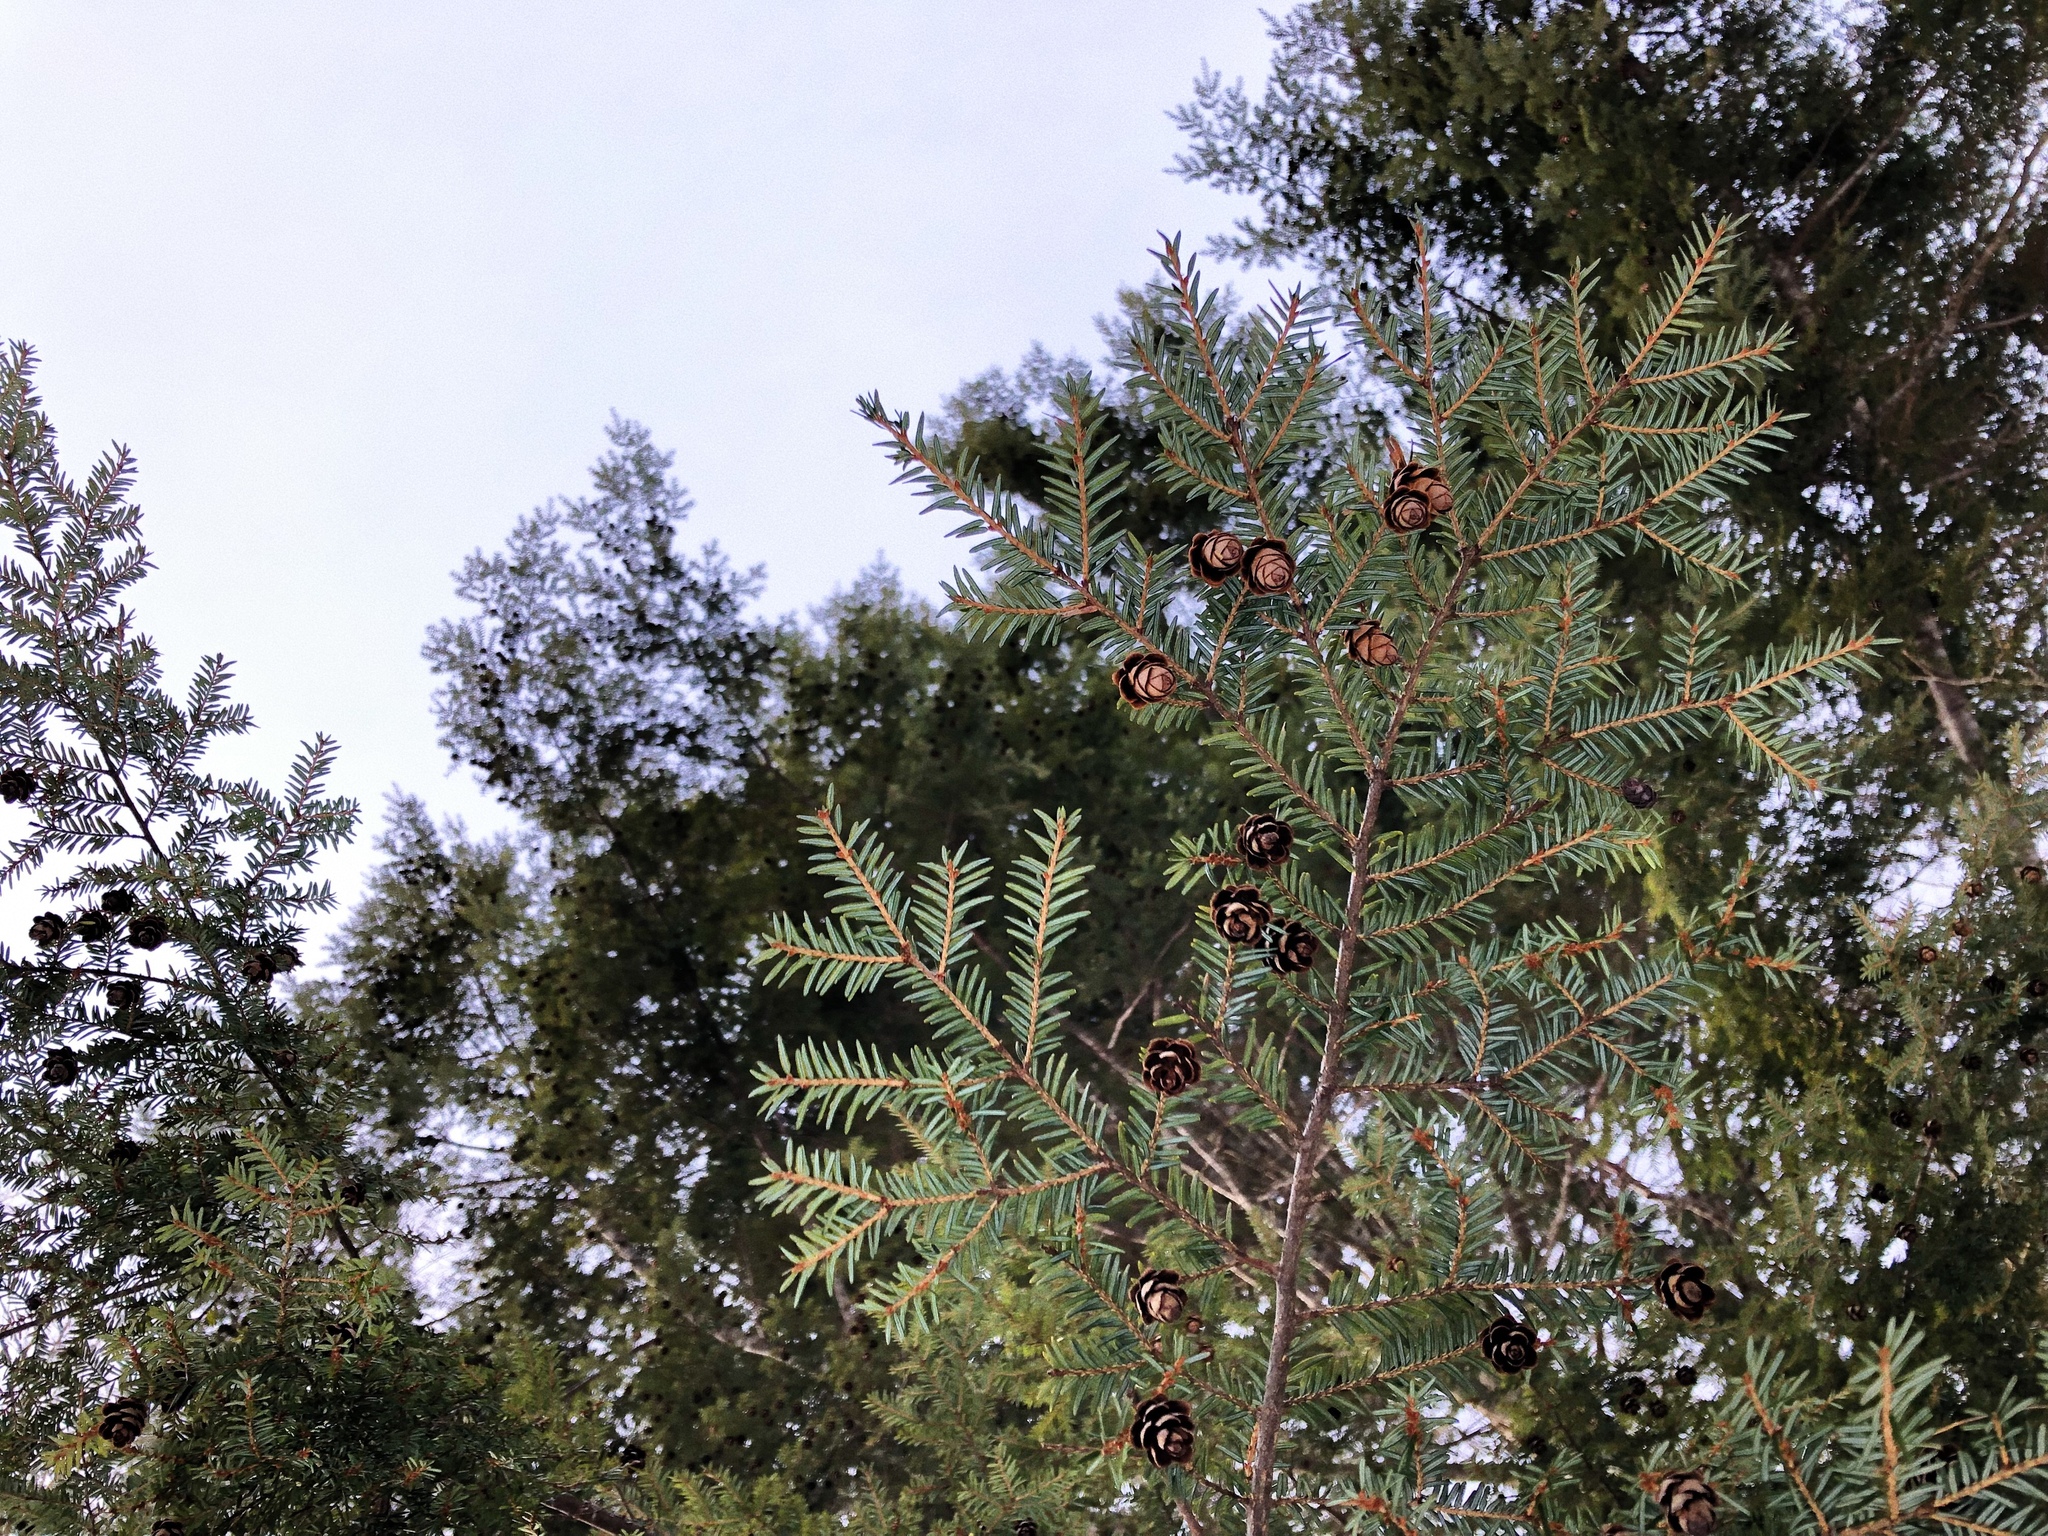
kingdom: Plantae
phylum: Tracheophyta
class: Pinopsida
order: Pinales
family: Pinaceae
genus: Tsuga
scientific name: Tsuga canadensis
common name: Eastern hemlock
